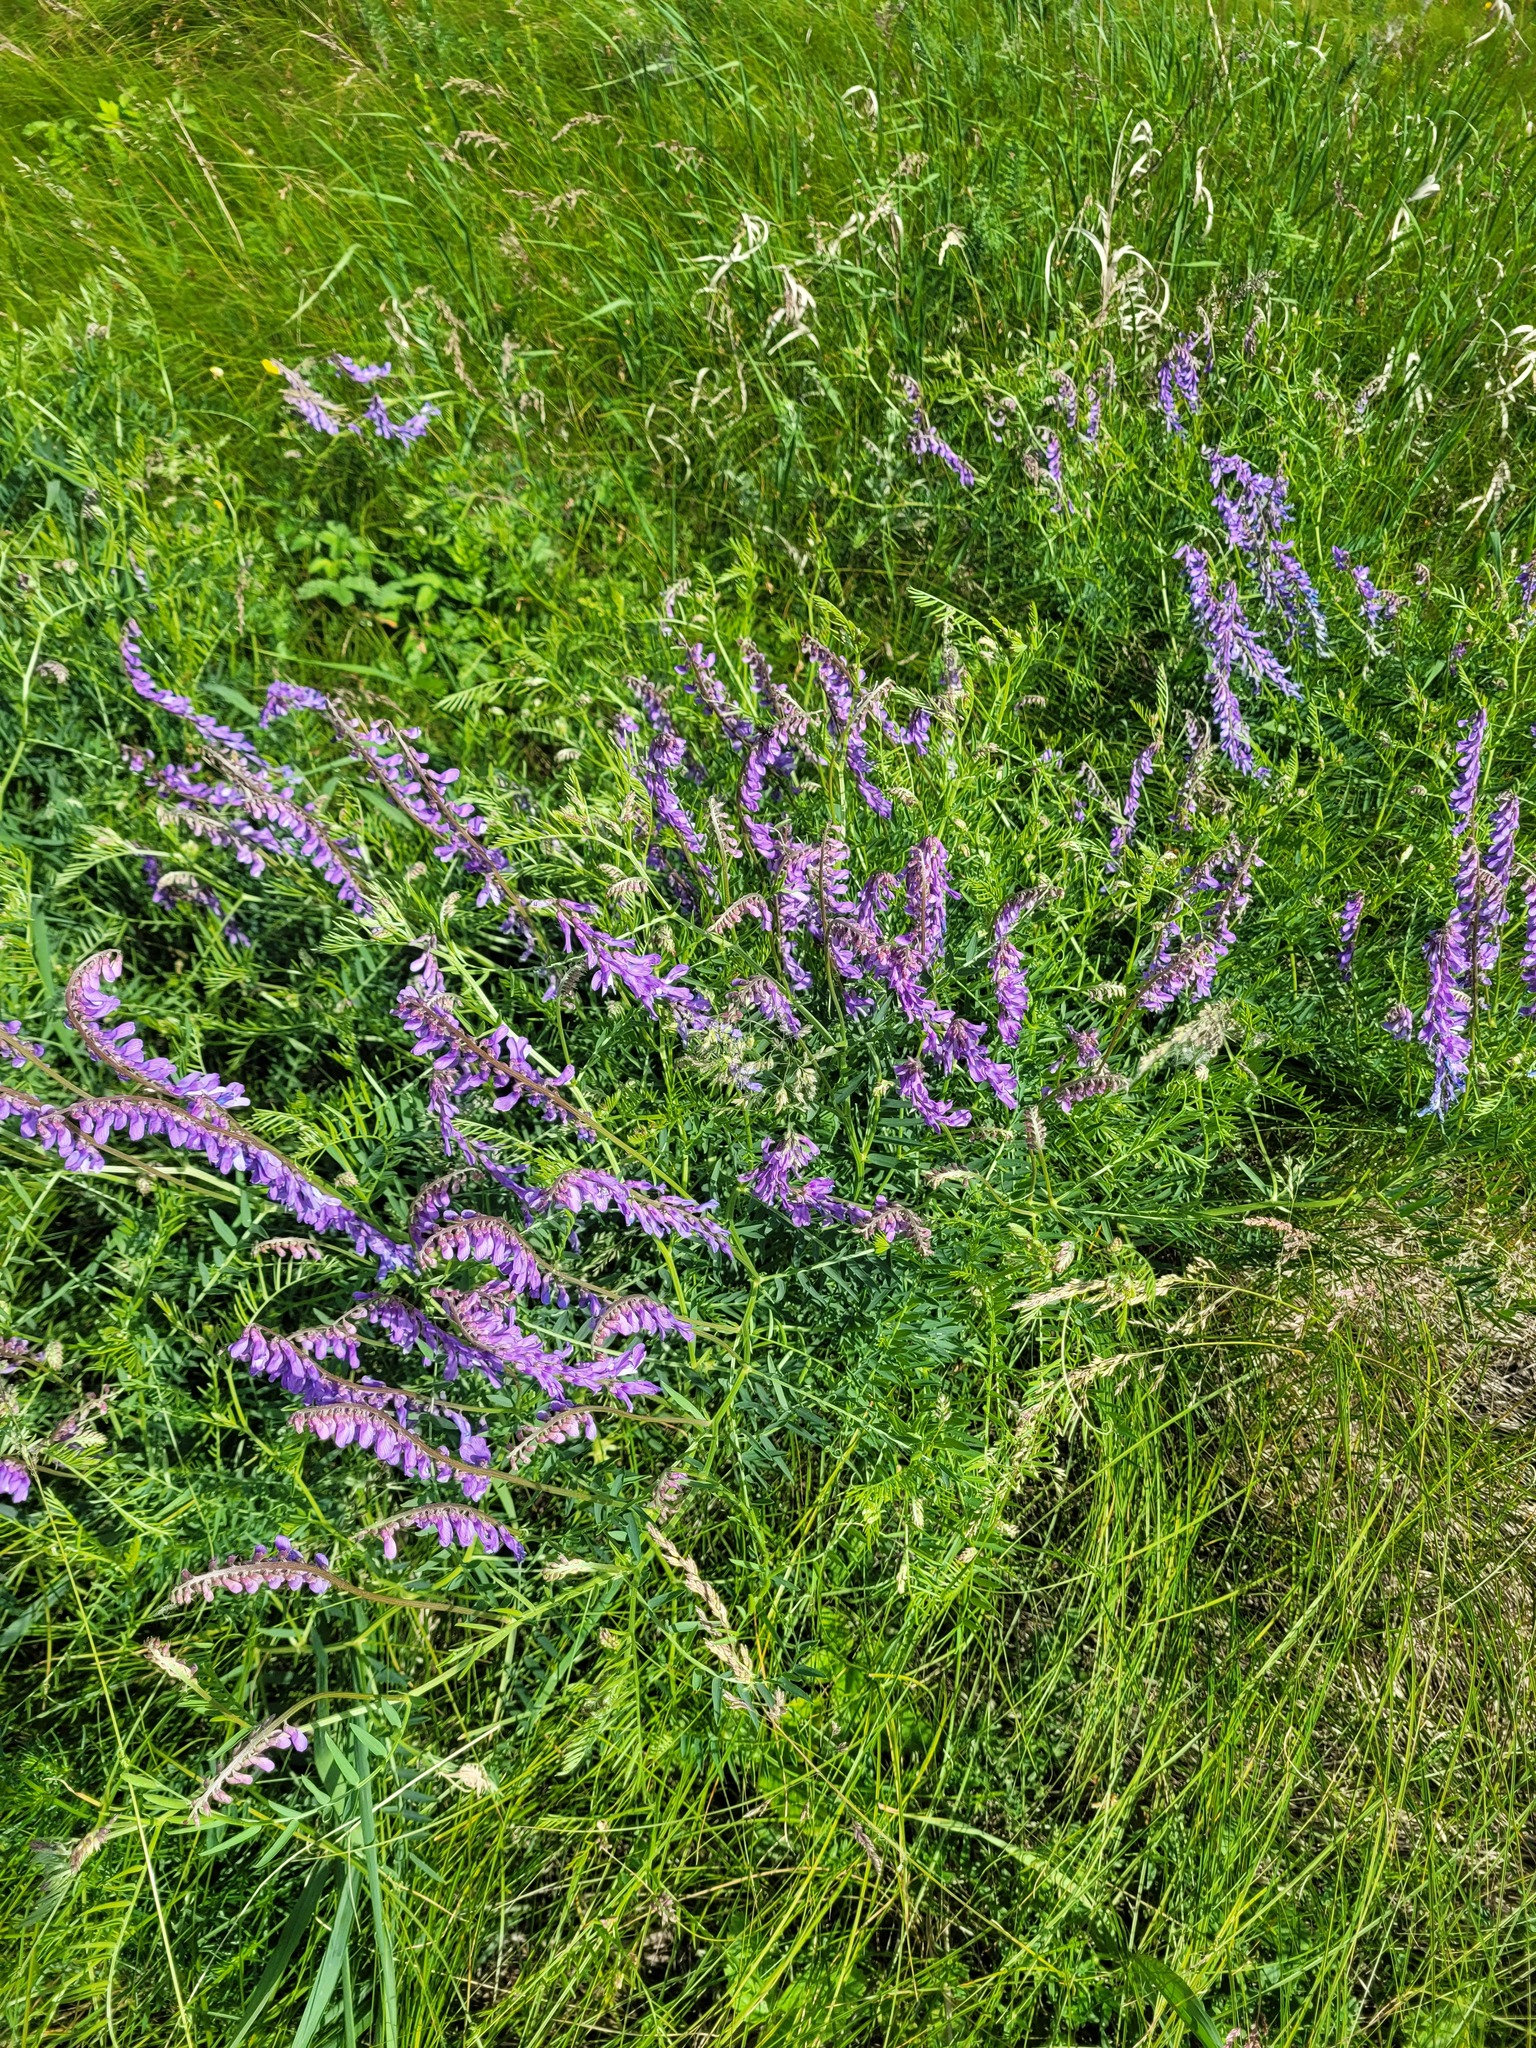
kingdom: Plantae
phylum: Tracheophyta
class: Magnoliopsida
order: Fabales
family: Fabaceae
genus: Vicia
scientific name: Vicia tenuifolia
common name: Fine-leaved vetch
